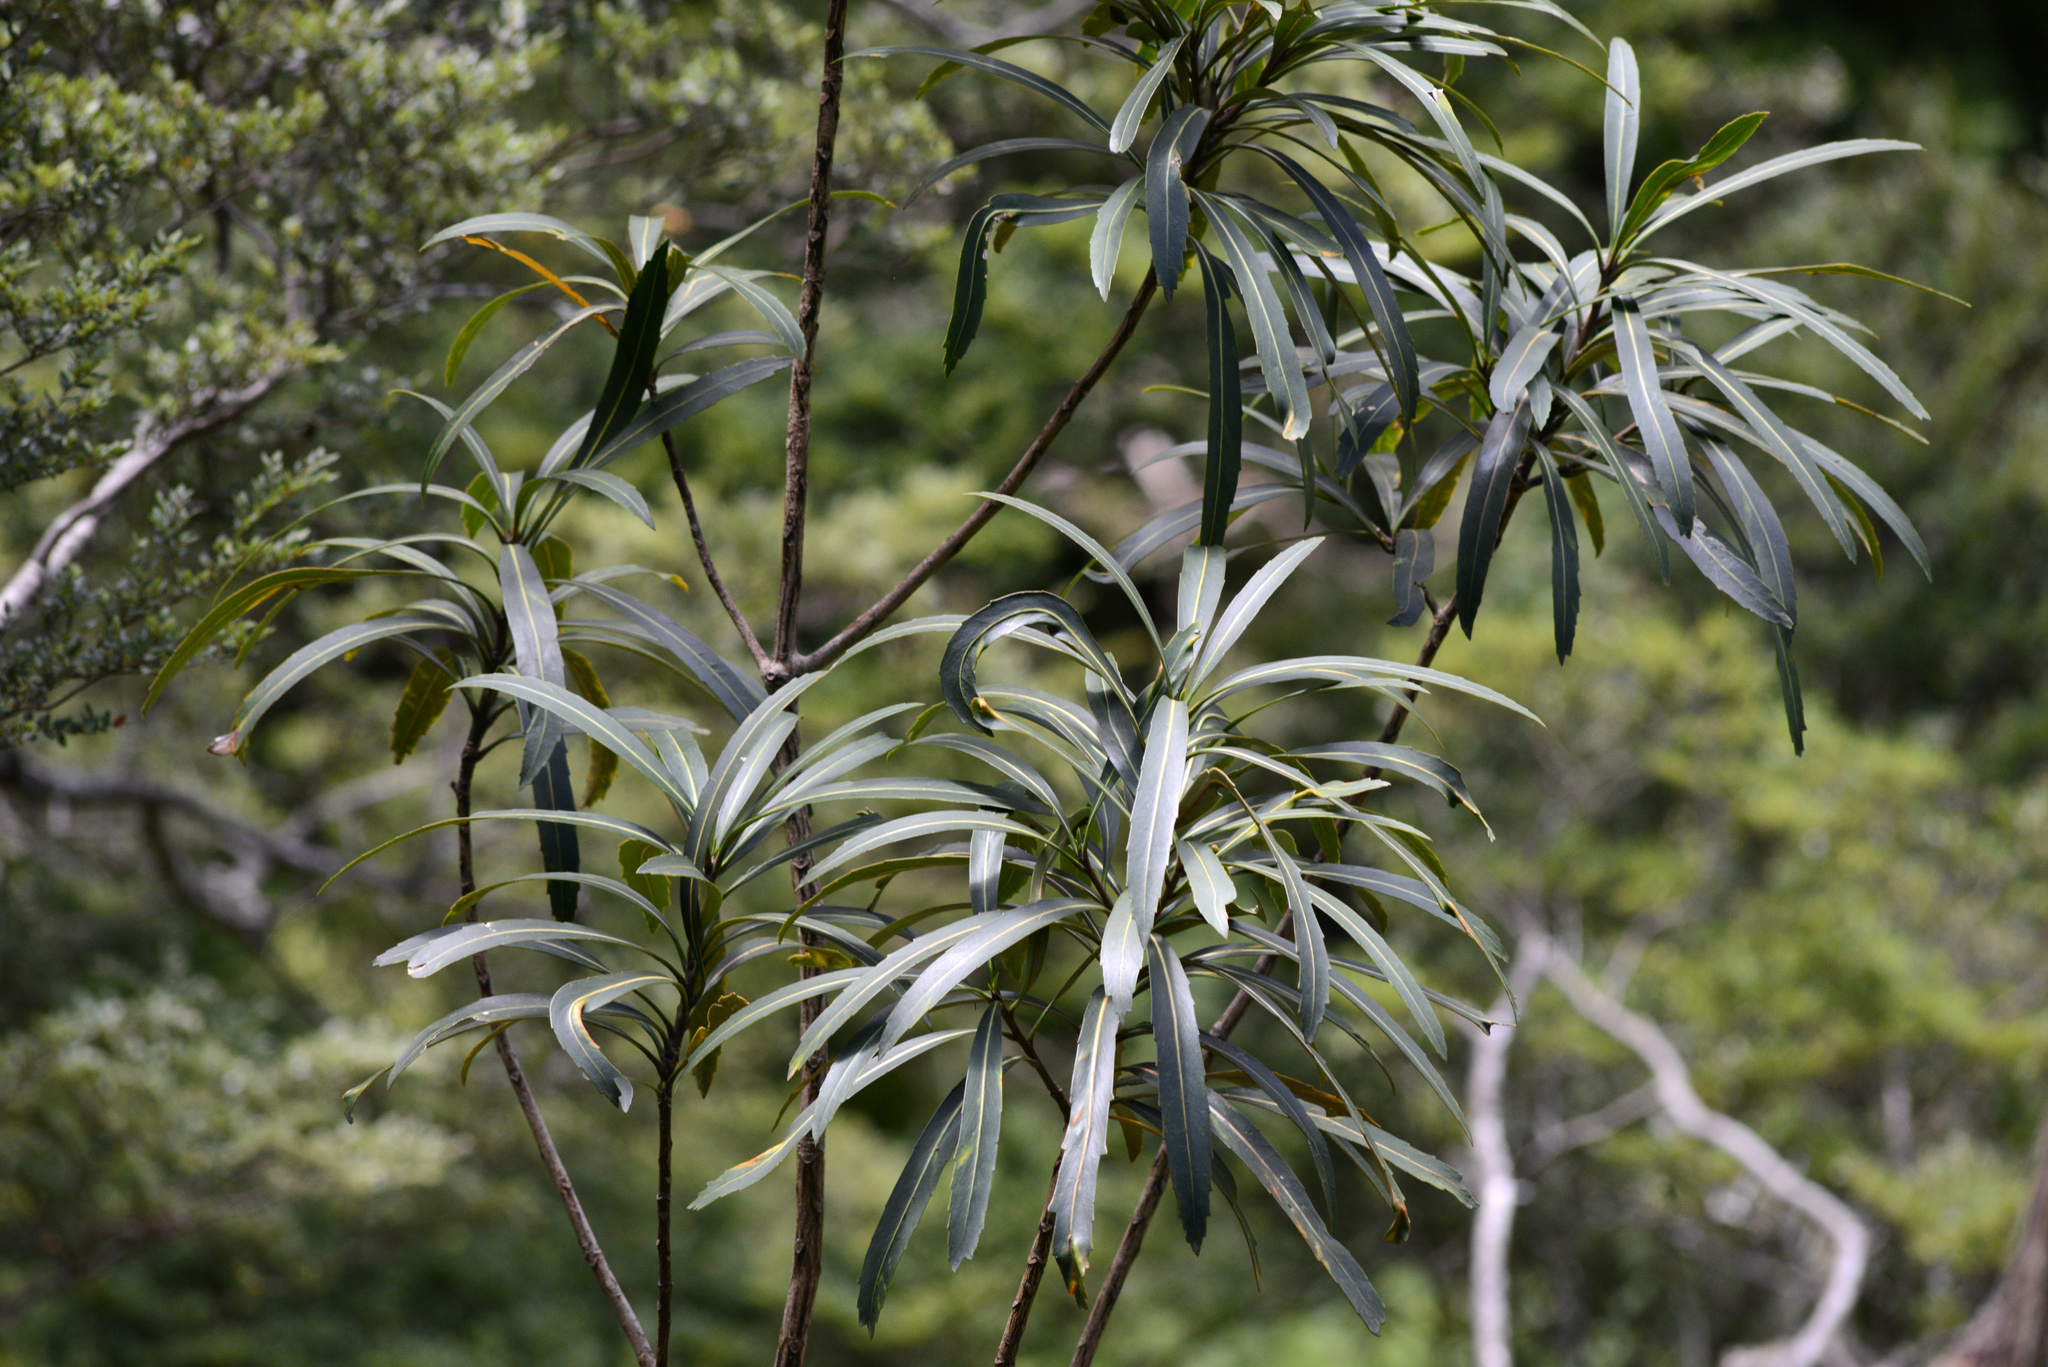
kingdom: Plantae
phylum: Tracheophyta
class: Magnoliopsida
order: Apiales
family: Araliaceae
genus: Pseudopanax
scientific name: Pseudopanax crassifolius
